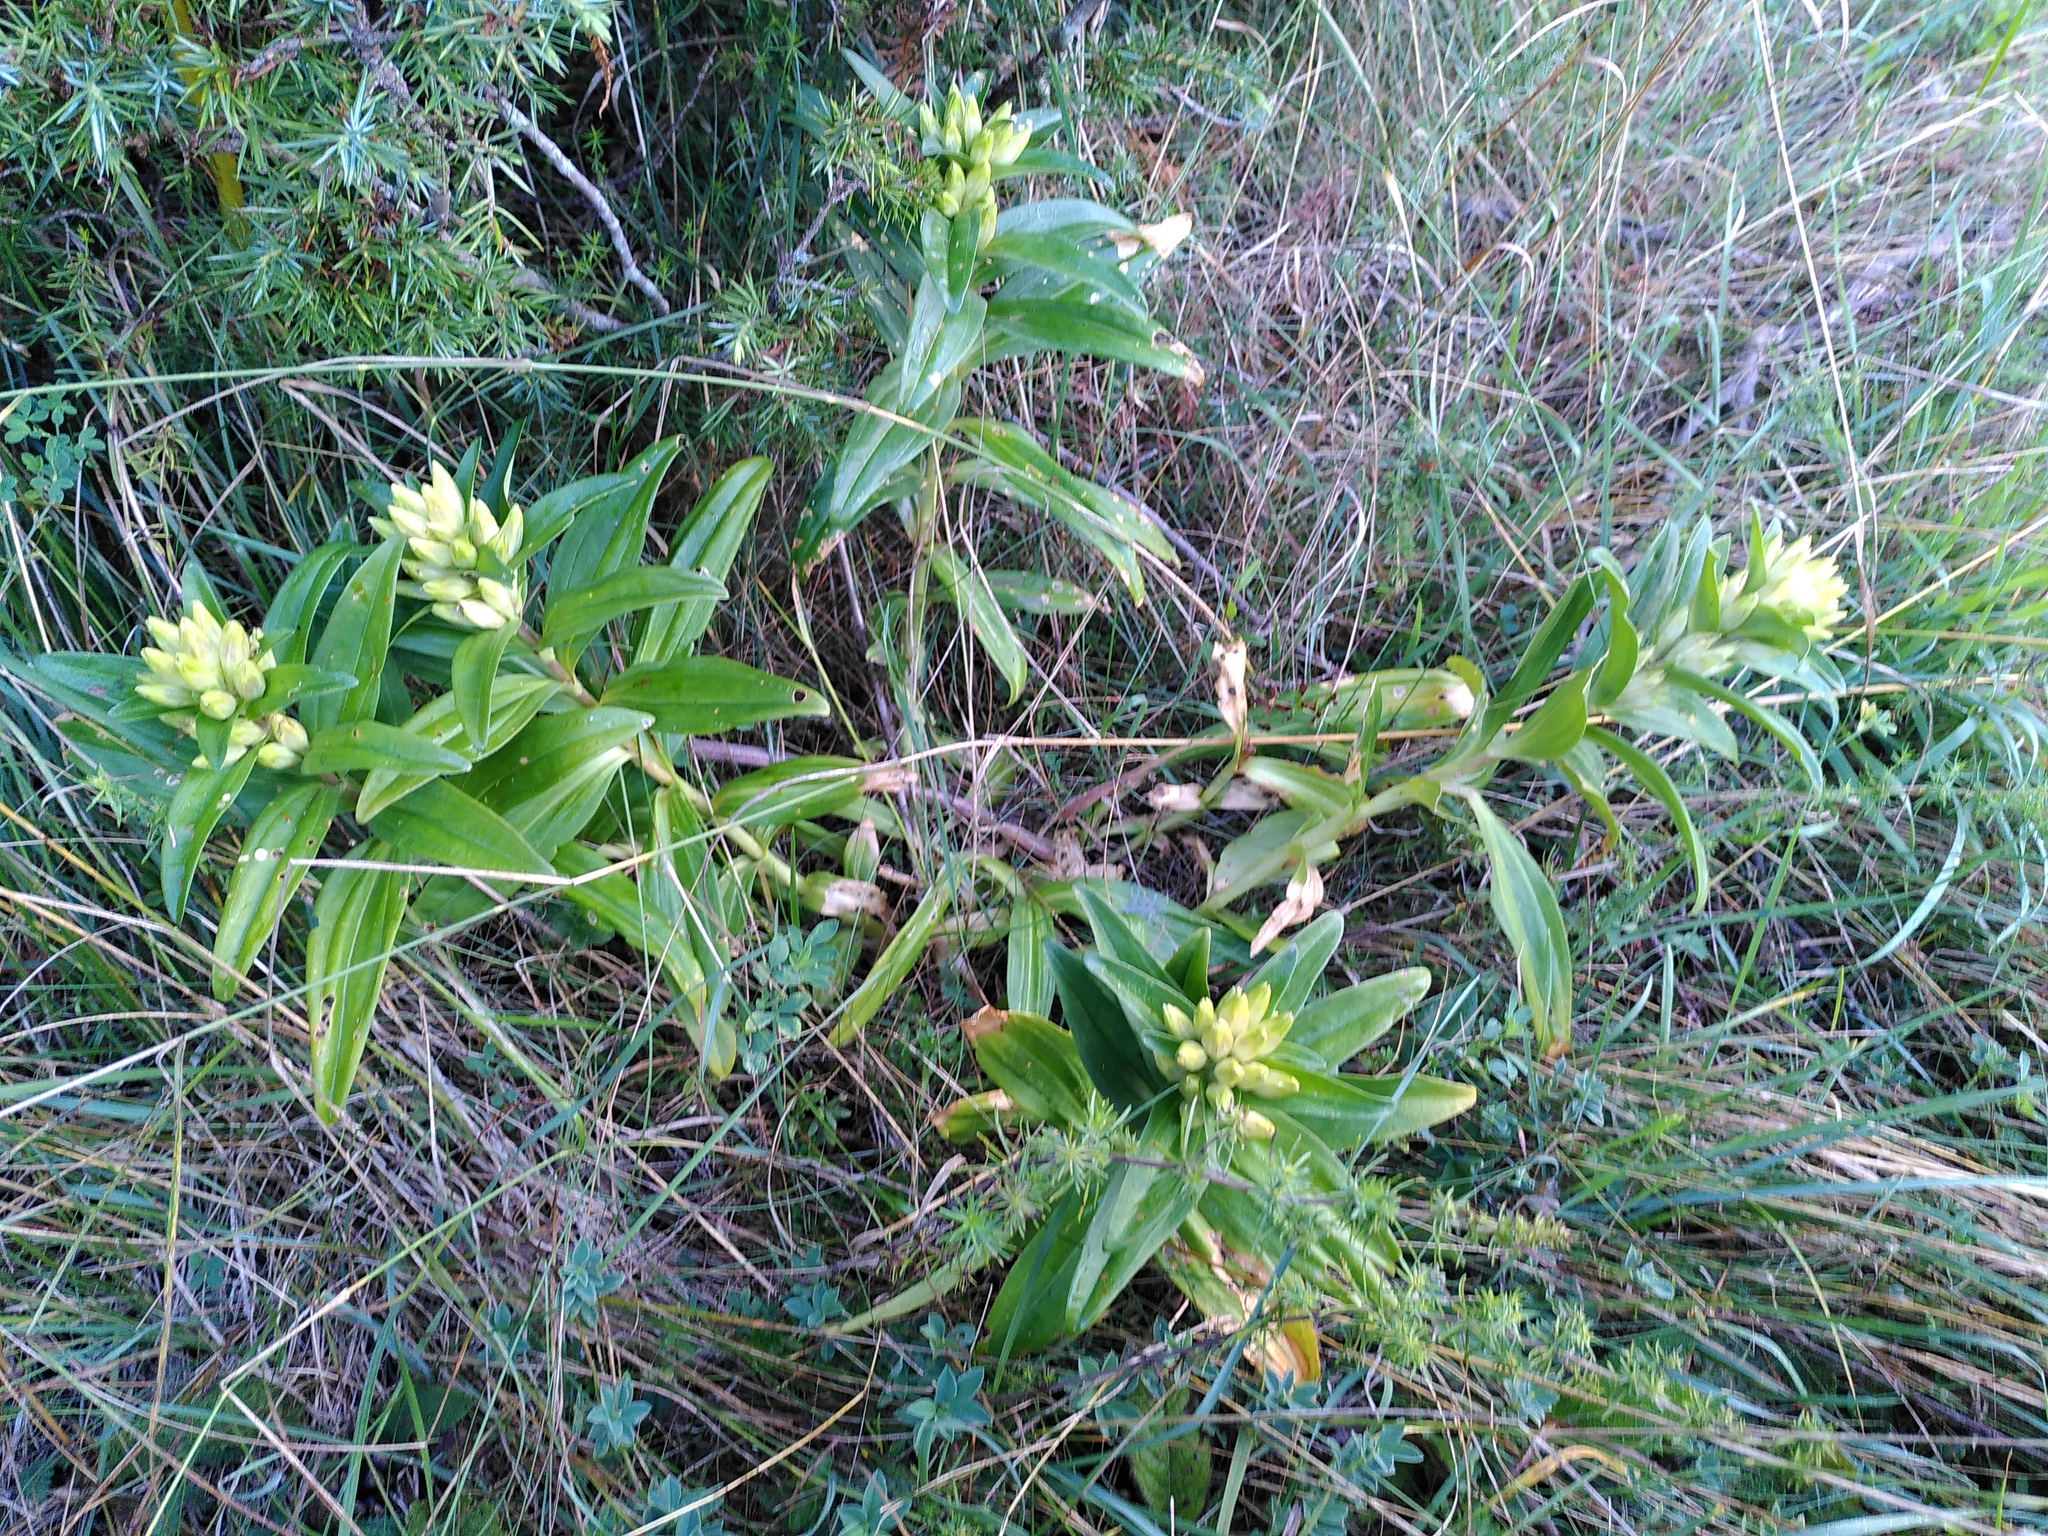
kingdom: Plantae
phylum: Tracheophyta
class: Magnoliopsida
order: Gentianales
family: Gentianaceae
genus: Gentiana
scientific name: Gentiana cruciata
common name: Cross gentian
